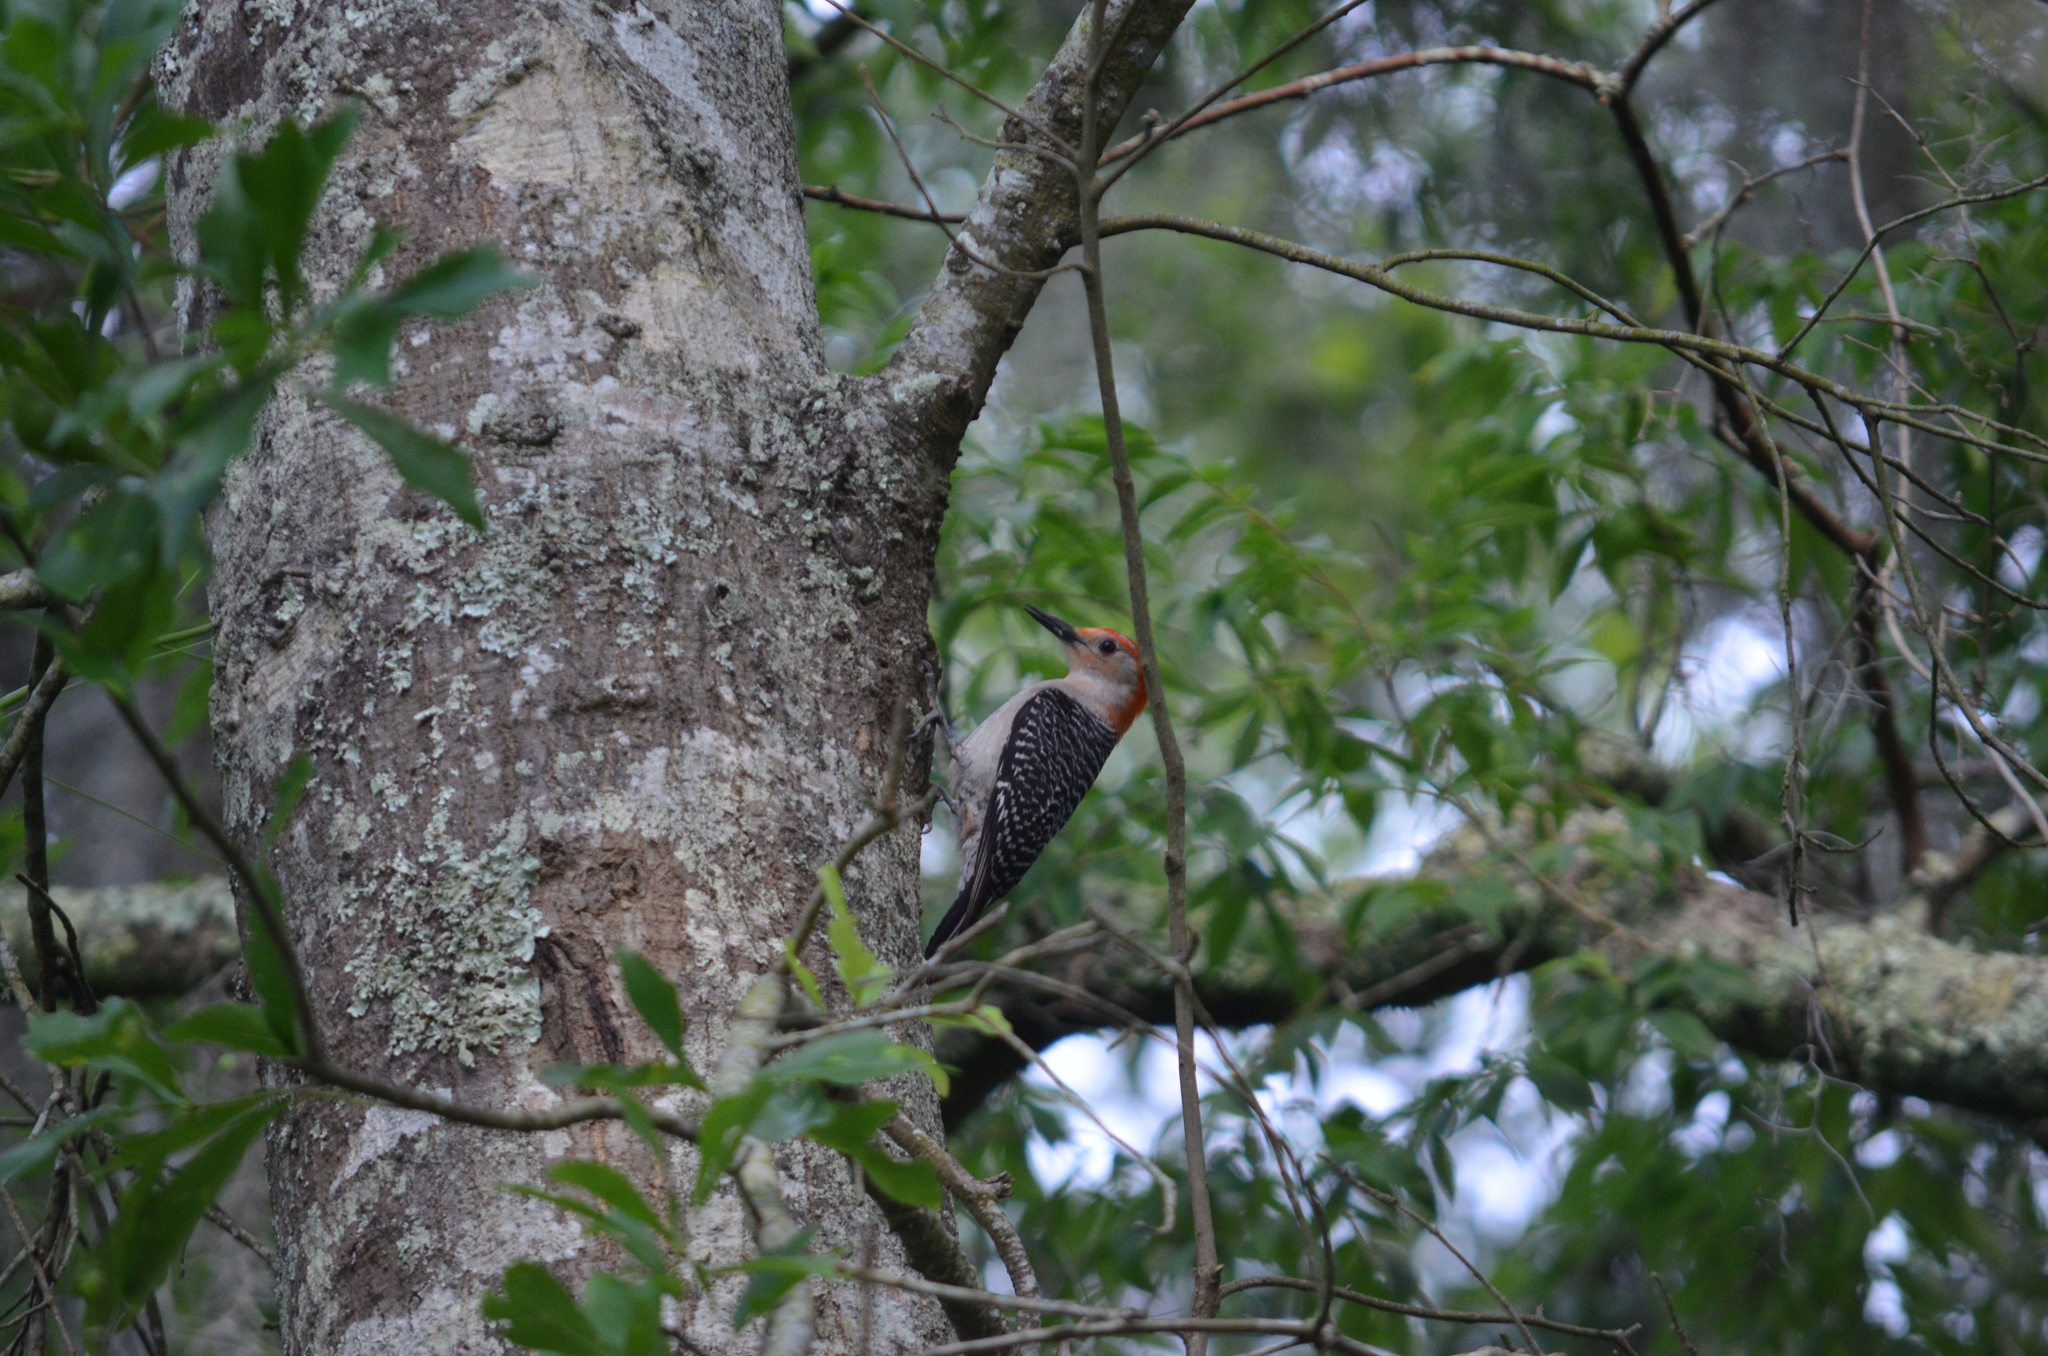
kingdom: Animalia
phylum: Chordata
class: Aves
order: Piciformes
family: Picidae
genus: Melanerpes
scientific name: Melanerpes carolinus
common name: Red-bellied woodpecker
